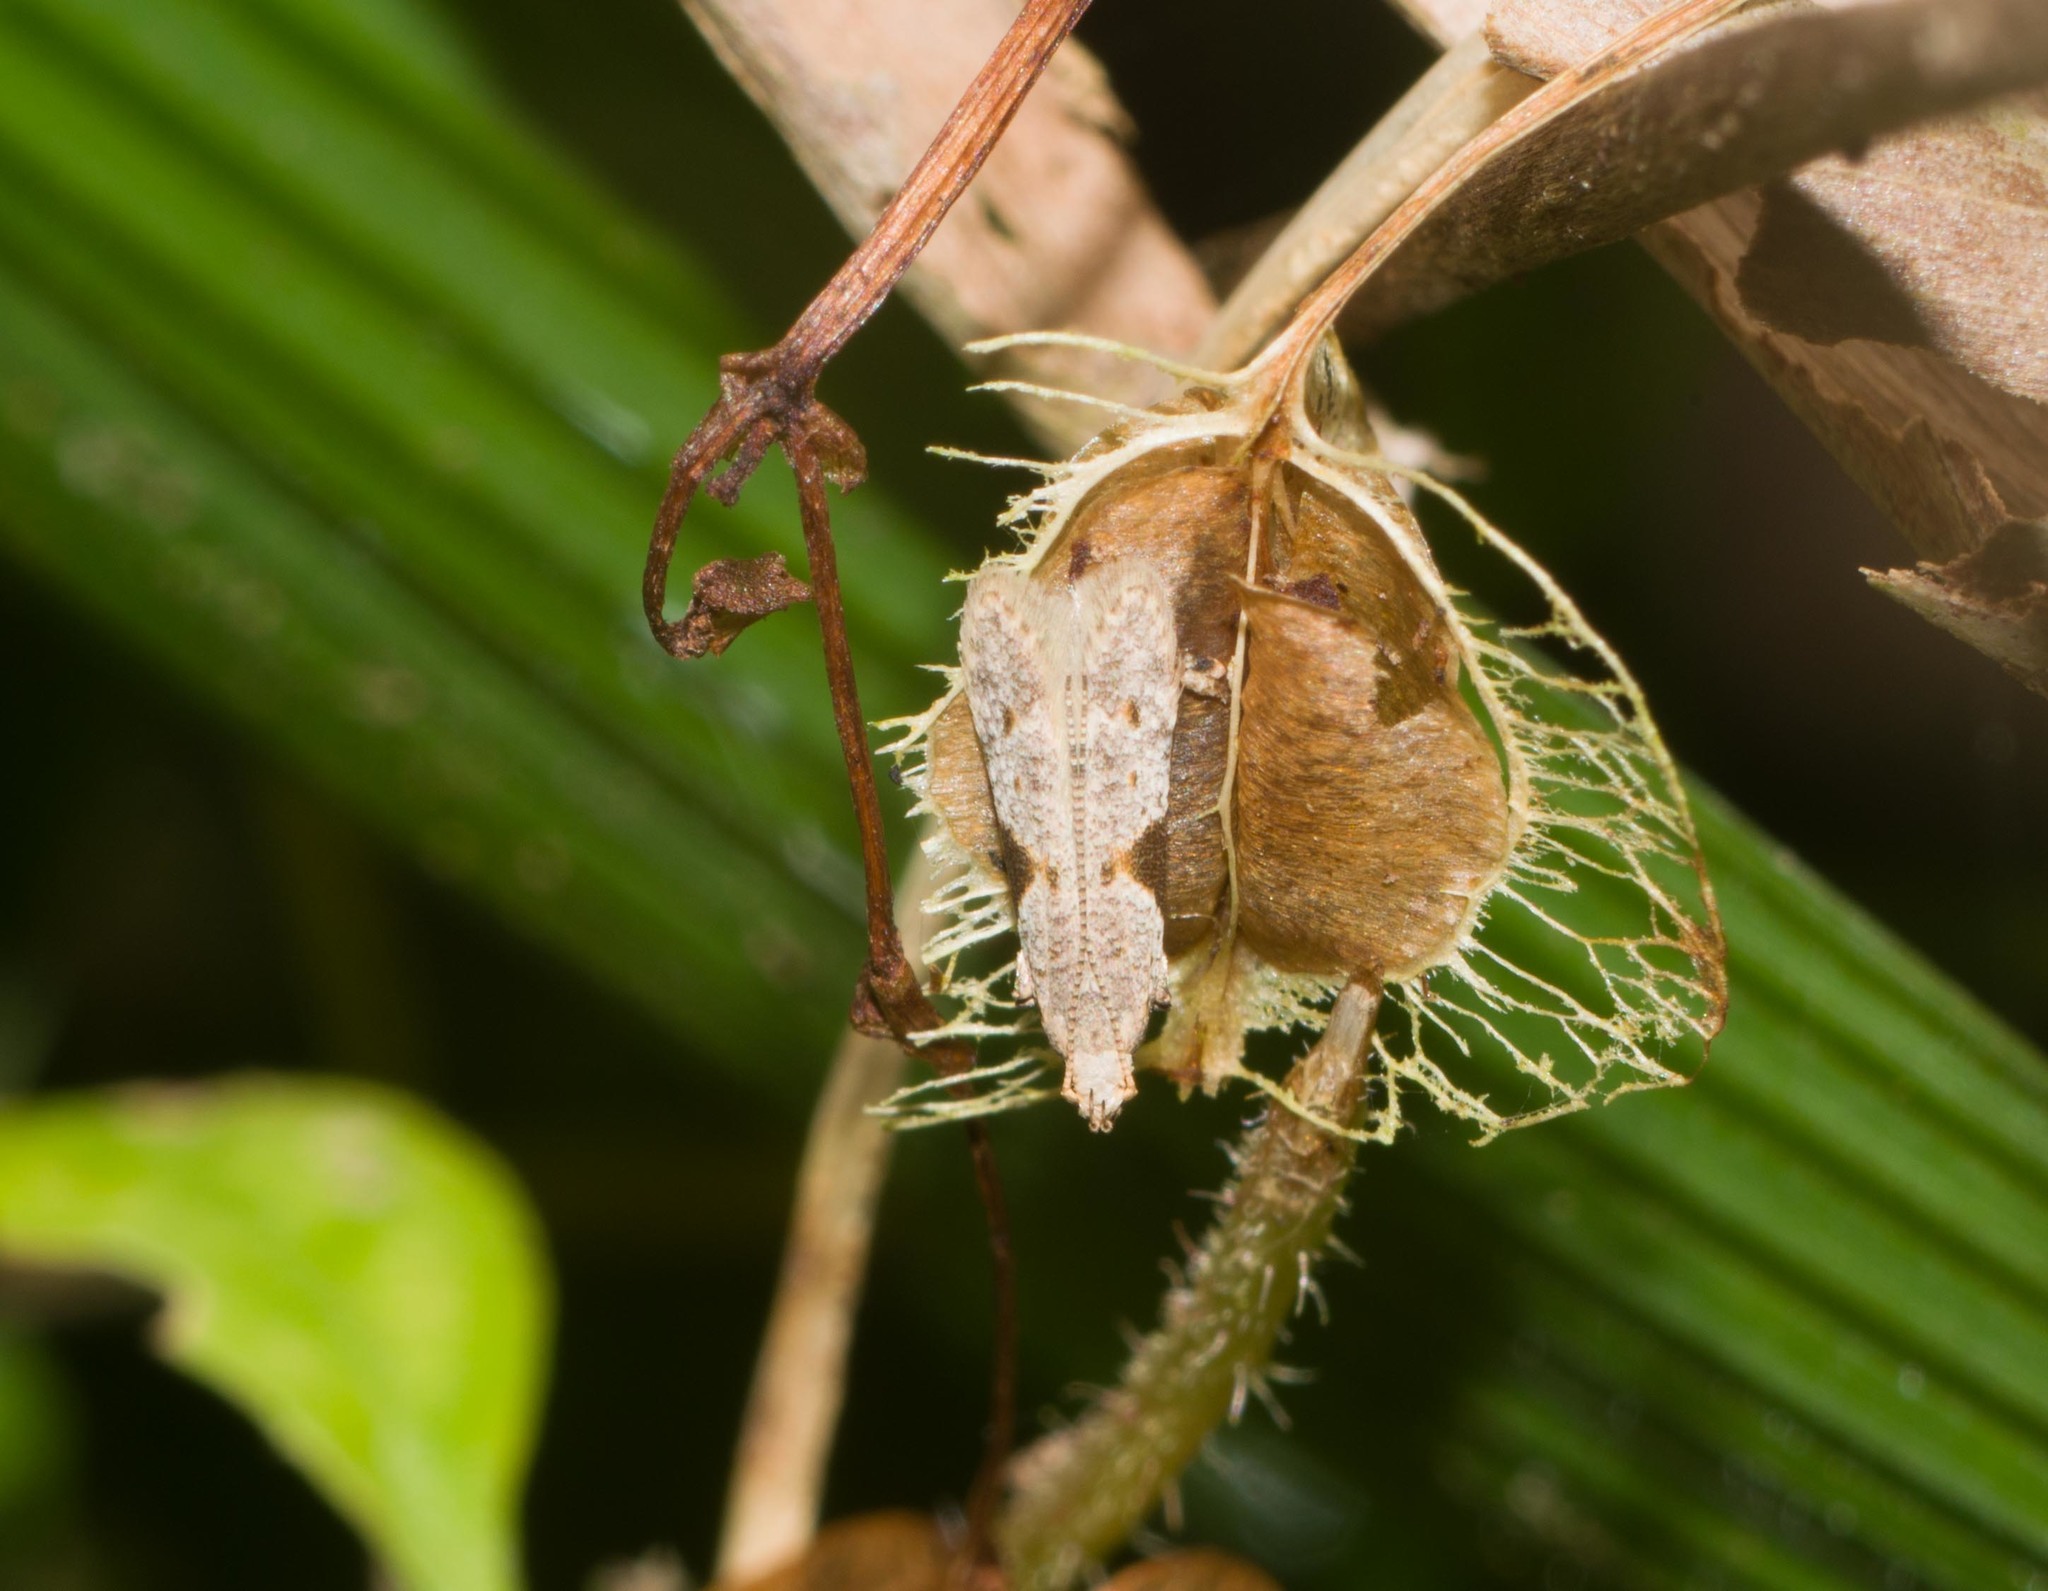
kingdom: Animalia
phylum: Arthropoda
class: Insecta
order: Lepidoptera
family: Gelechiidae
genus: Merimnetria
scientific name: Merimnetria elegantior
